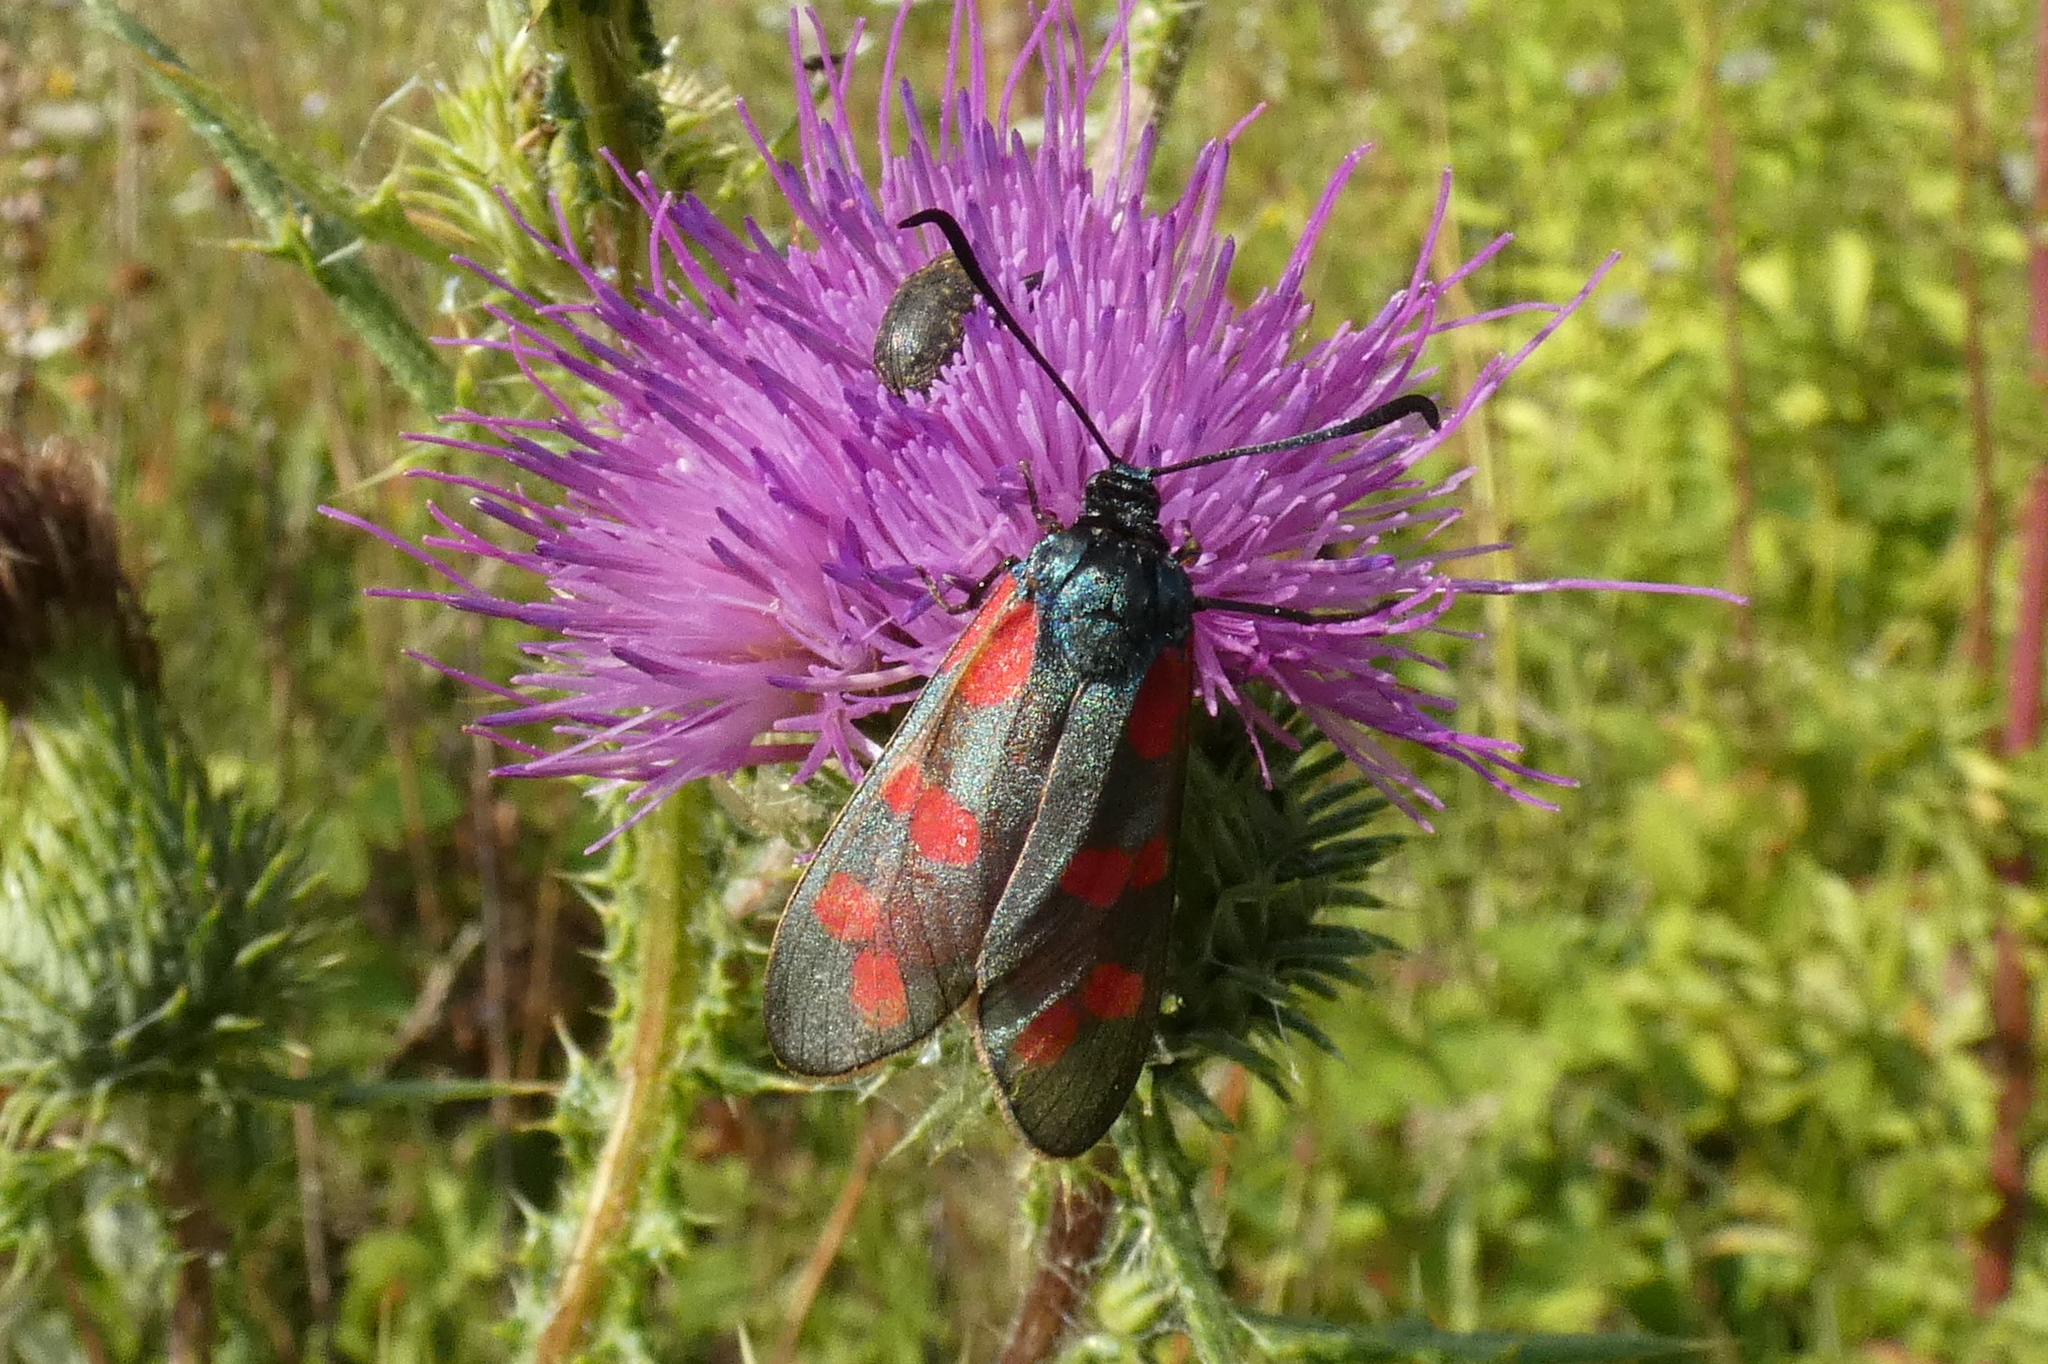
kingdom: Animalia
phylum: Arthropoda
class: Insecta
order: Lepidoptera
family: Zygaenidae
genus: Zygaena
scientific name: Zygaena filipendulae
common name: Six-spot burnet
